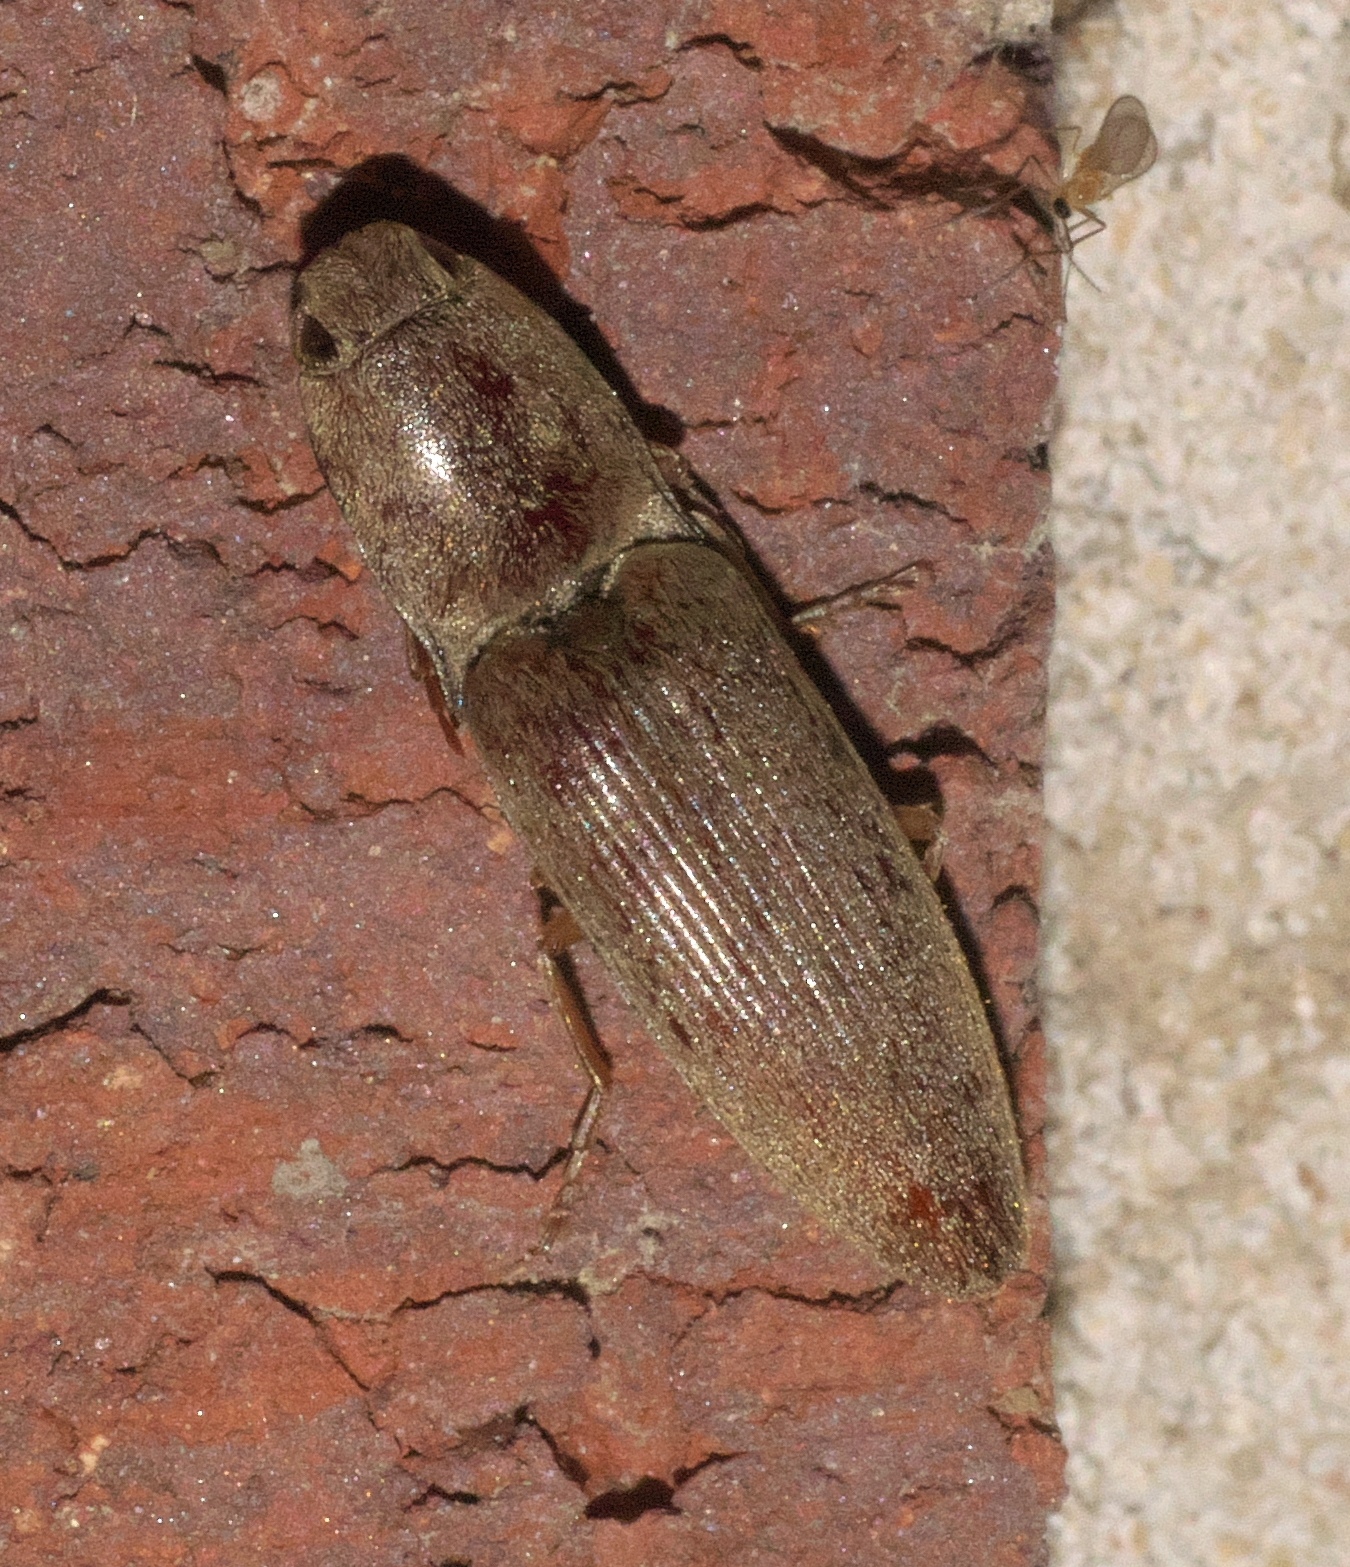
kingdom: Animalia
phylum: Arthropoda
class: Insecta
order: Coleoptera
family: Elateridae
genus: Monocrepidius
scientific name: Monocrepidius lividus
